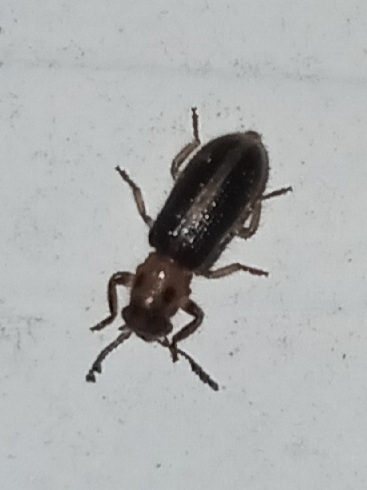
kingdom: Animalia
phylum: Arthropoda
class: Insecta
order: Coleoptera
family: Cleridae
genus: Cregya
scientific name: Cregya oculata
